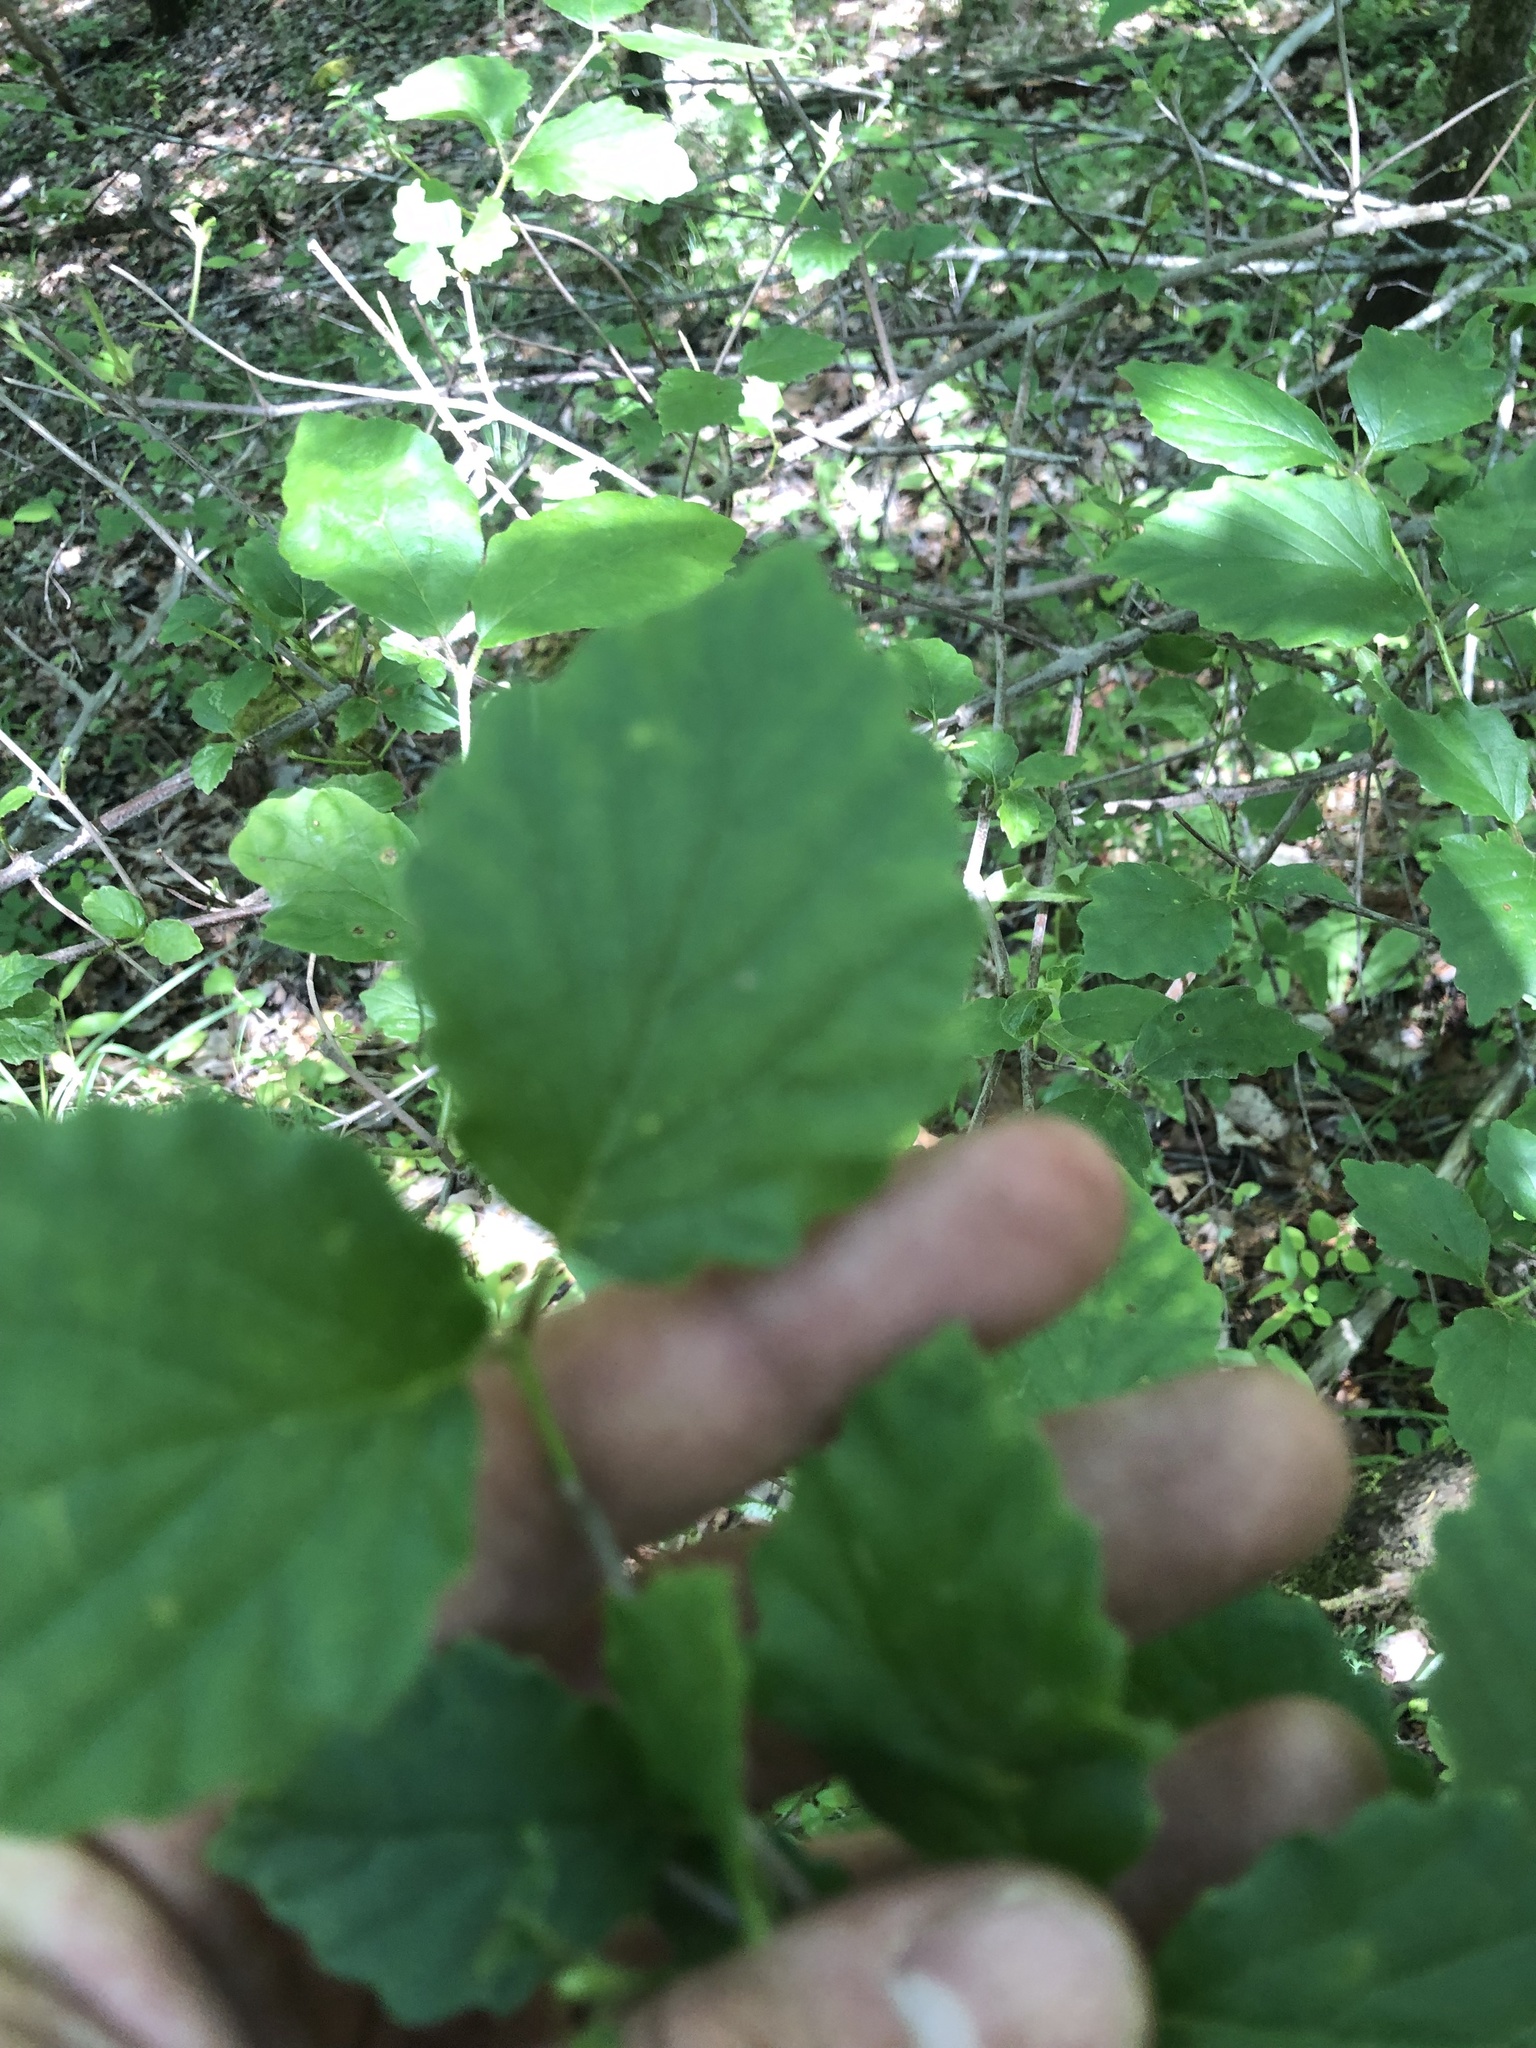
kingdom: Plantae
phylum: Tracheophyta
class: Magnoliopsida
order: Dipsacales
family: Viburnaceae
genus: Viburnum
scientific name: Viburnum scabrellum
